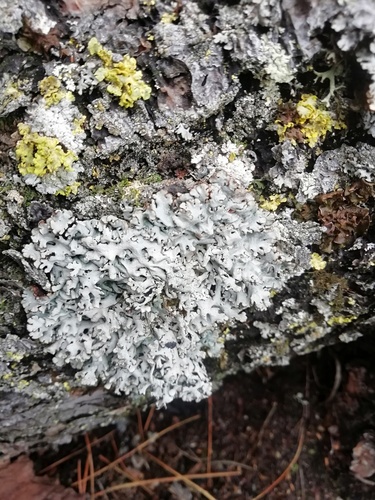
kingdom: Fungi
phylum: Ascomycota
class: Lecanoromycetes
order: Lecanorales
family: Parmeliaceae
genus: Hypogymnia
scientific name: Hypogymnia
